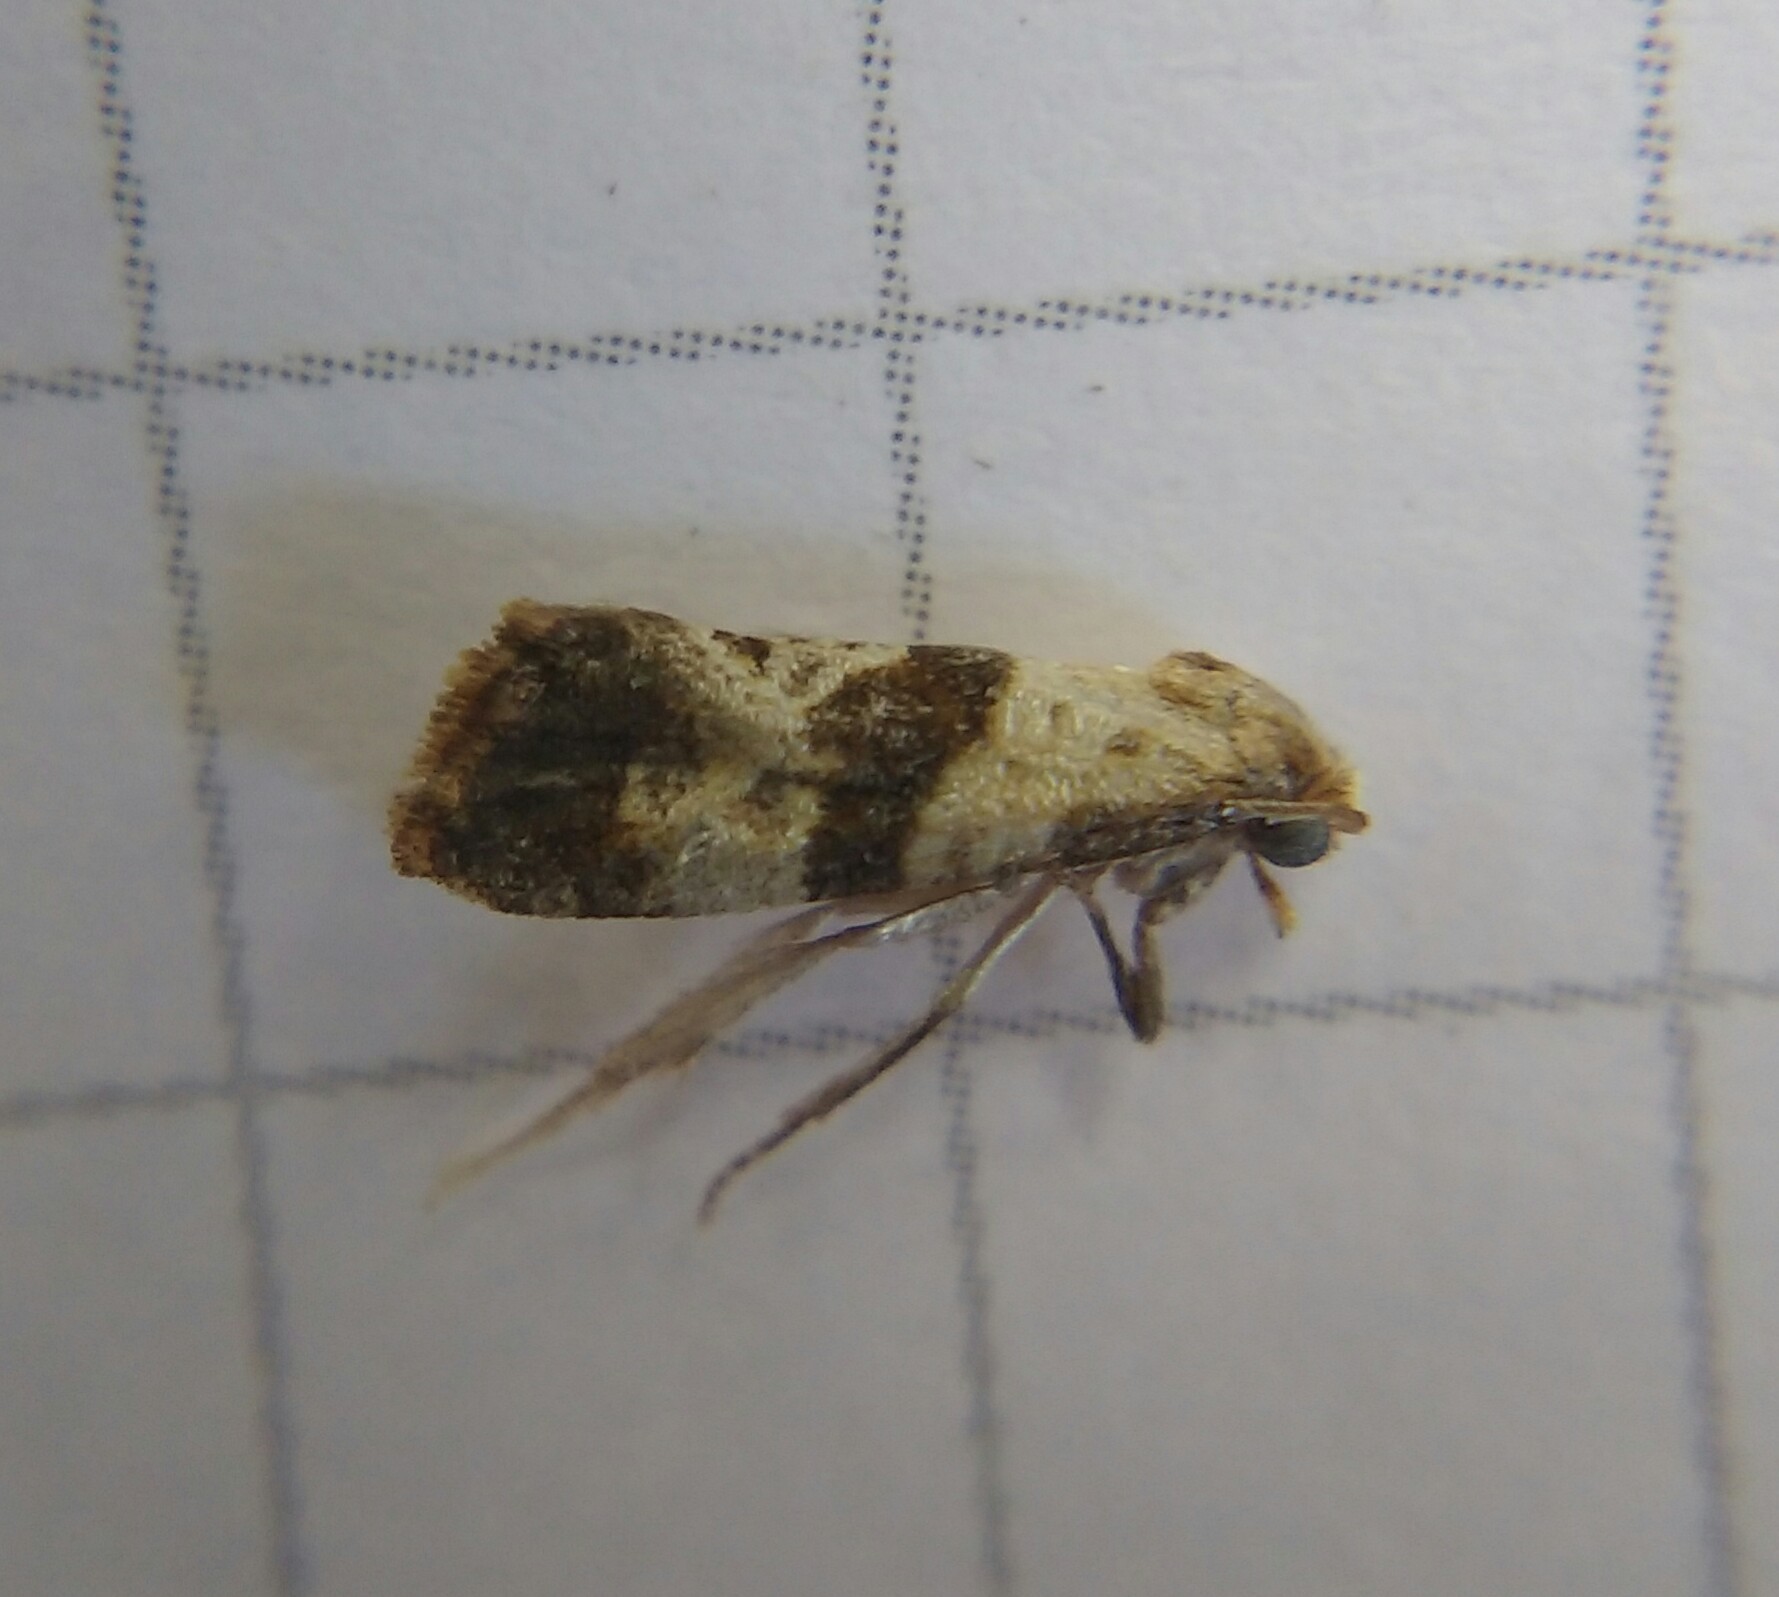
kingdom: Animalia
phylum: Arthropoda
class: Insecta
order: Lepidoptera
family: Tortricidae
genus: Phalonidia
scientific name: Phalonidia contractana
